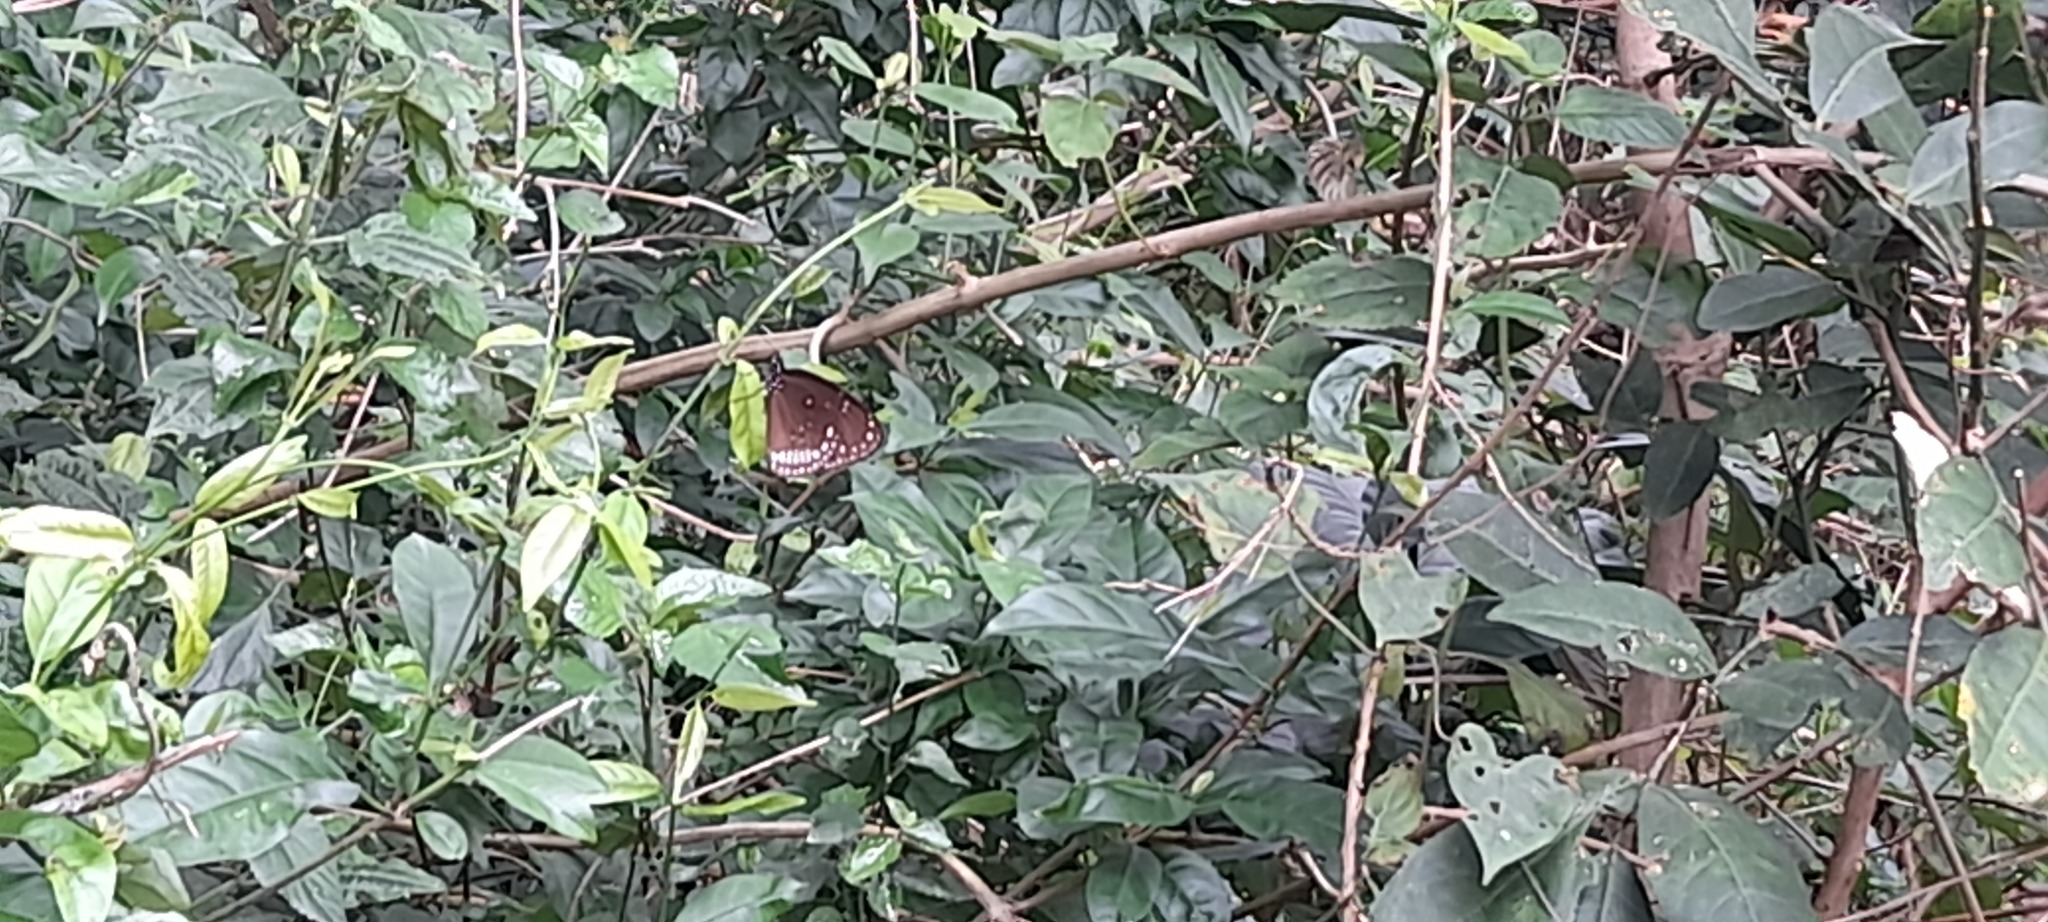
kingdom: Animalia
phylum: Arthropoda
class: Insecta
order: Lepidoptera
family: Nymphalidae
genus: Euploea
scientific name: Euploea core
